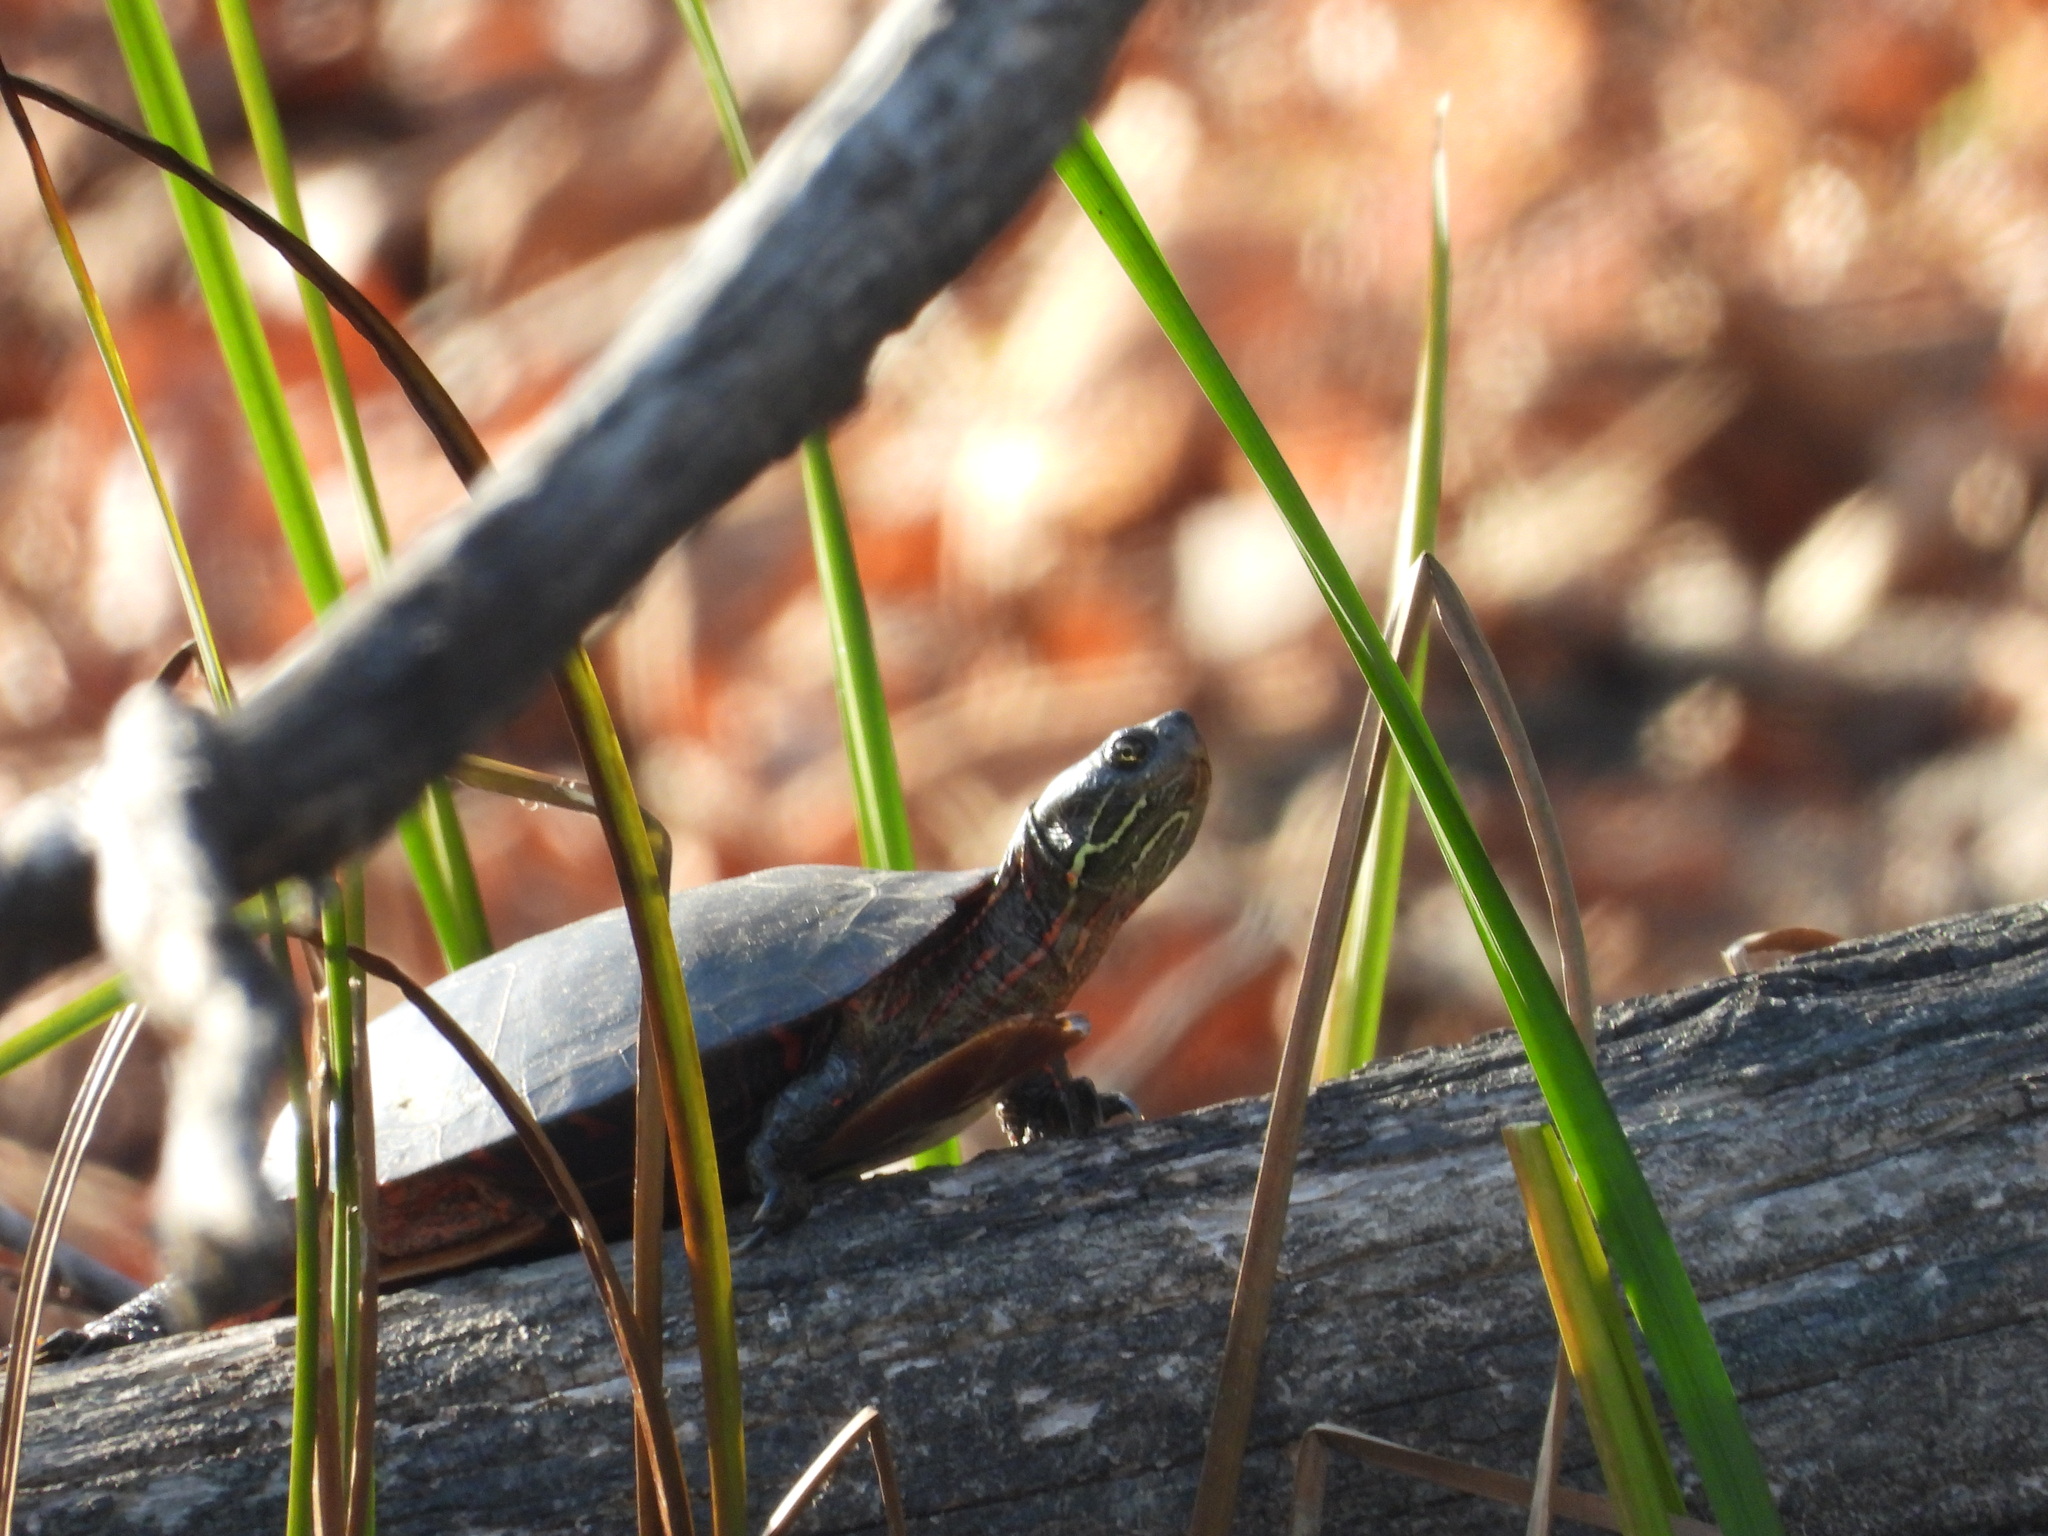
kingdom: Animalia
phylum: Chordata
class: Testudines
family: Emydidae
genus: Chrysemys
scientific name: Chrysemys picta
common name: Painted turtle
